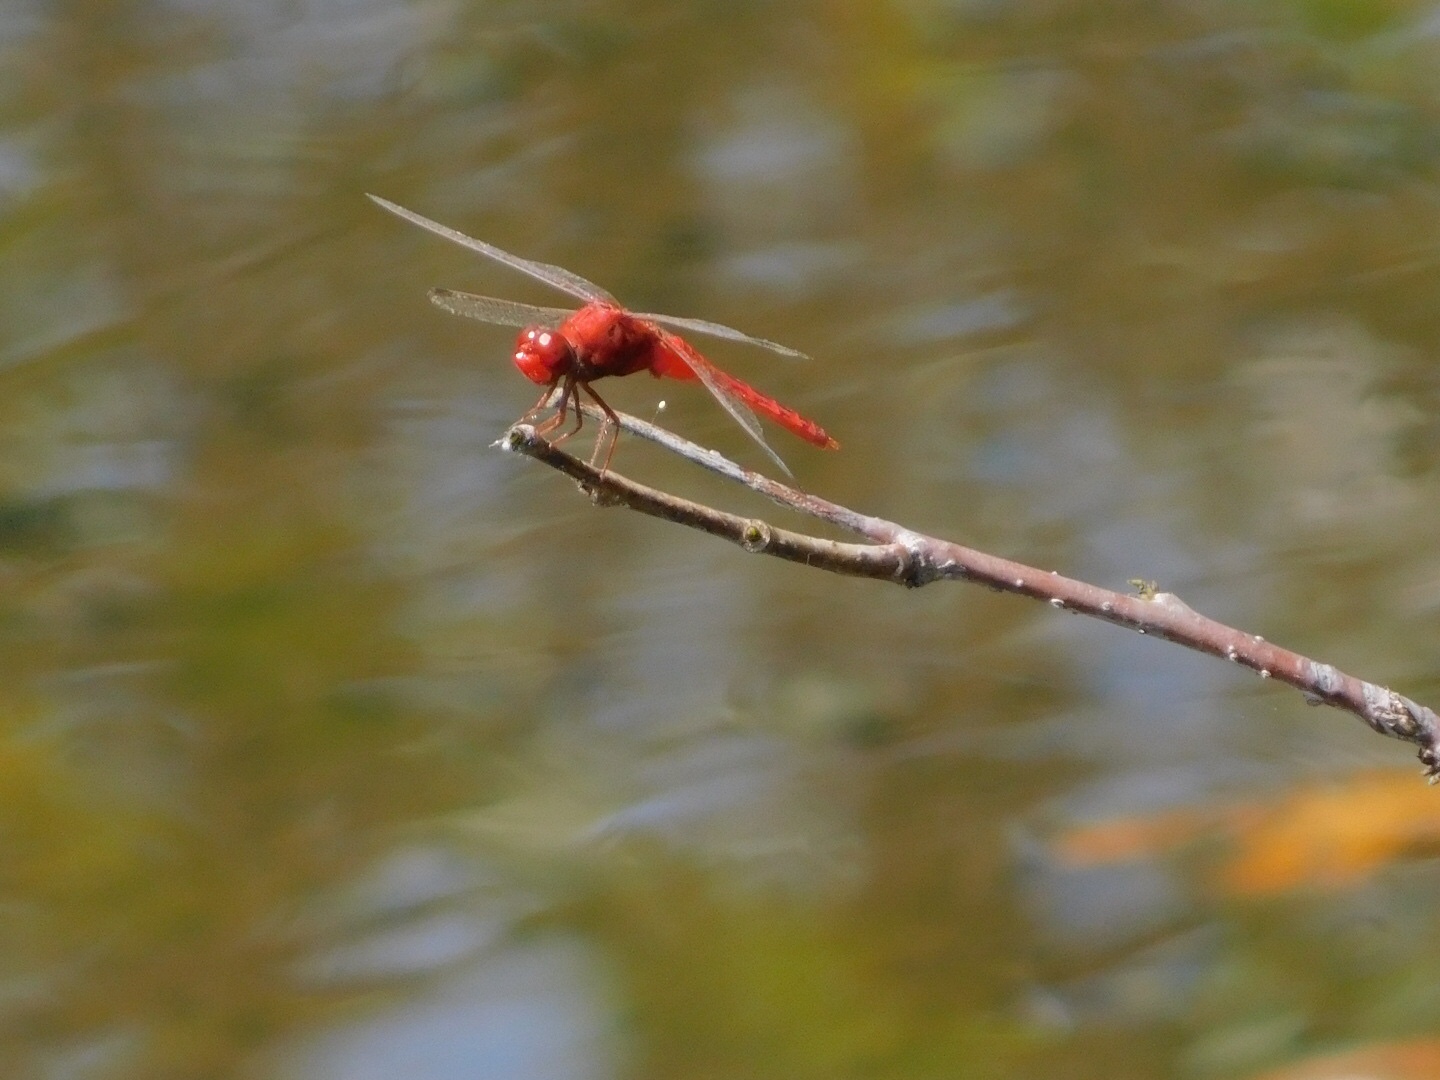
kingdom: Animalia
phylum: Arthropoda
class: Insecta
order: Odonata
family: Libellulidae
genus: Crocothemis
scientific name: Crocothemis servilia
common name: Scarlet skimmer
